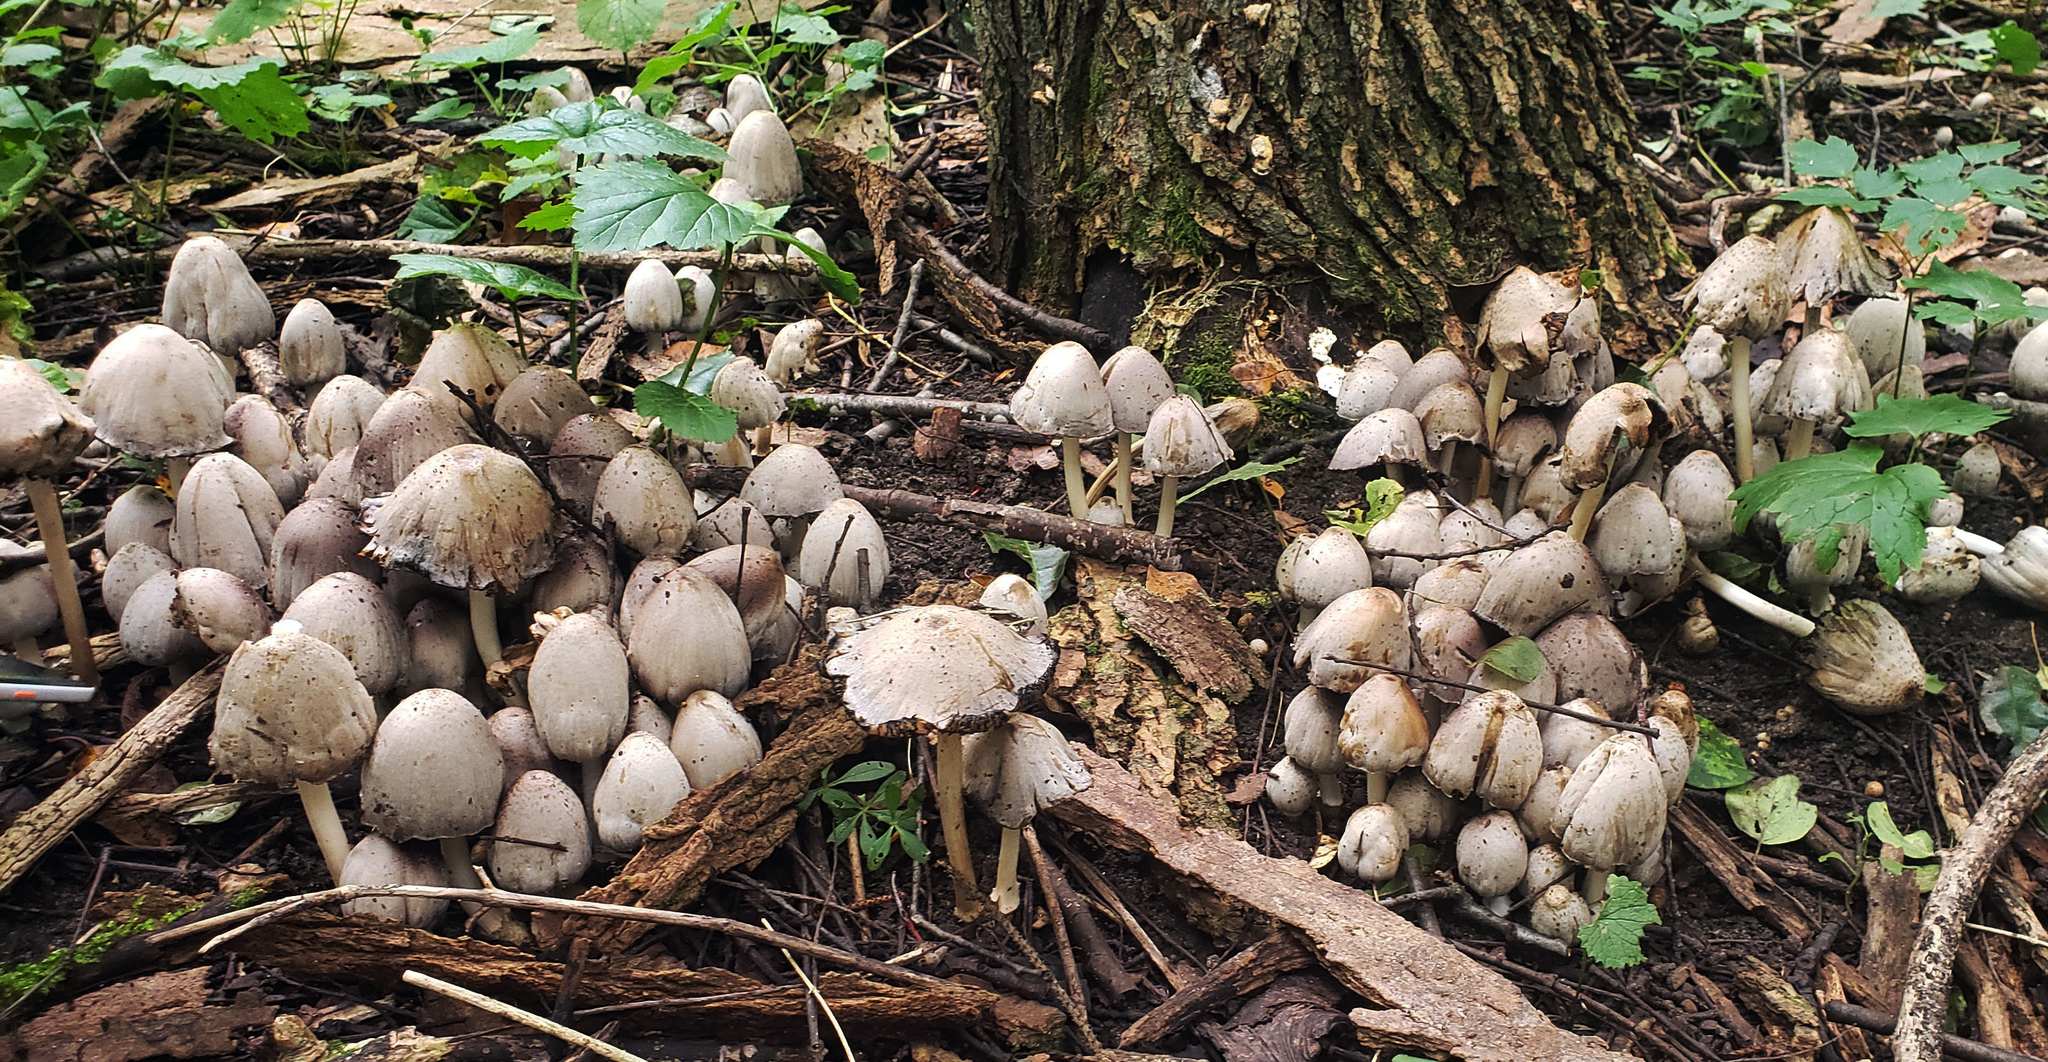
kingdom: Fungi
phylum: Basidiomycota
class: Agaricomycetes
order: Agaricales
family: Psathyrellaceae
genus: Coprinopsis
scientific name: Coprinopsis atramentaria
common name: Common ink-cap
